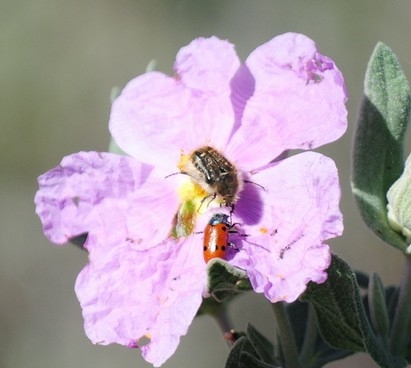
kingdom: Animalia
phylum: Arthropoda
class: Insecta
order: Coleoptera
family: Scarabaeidae
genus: Tropinota
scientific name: Tropinota squalida
